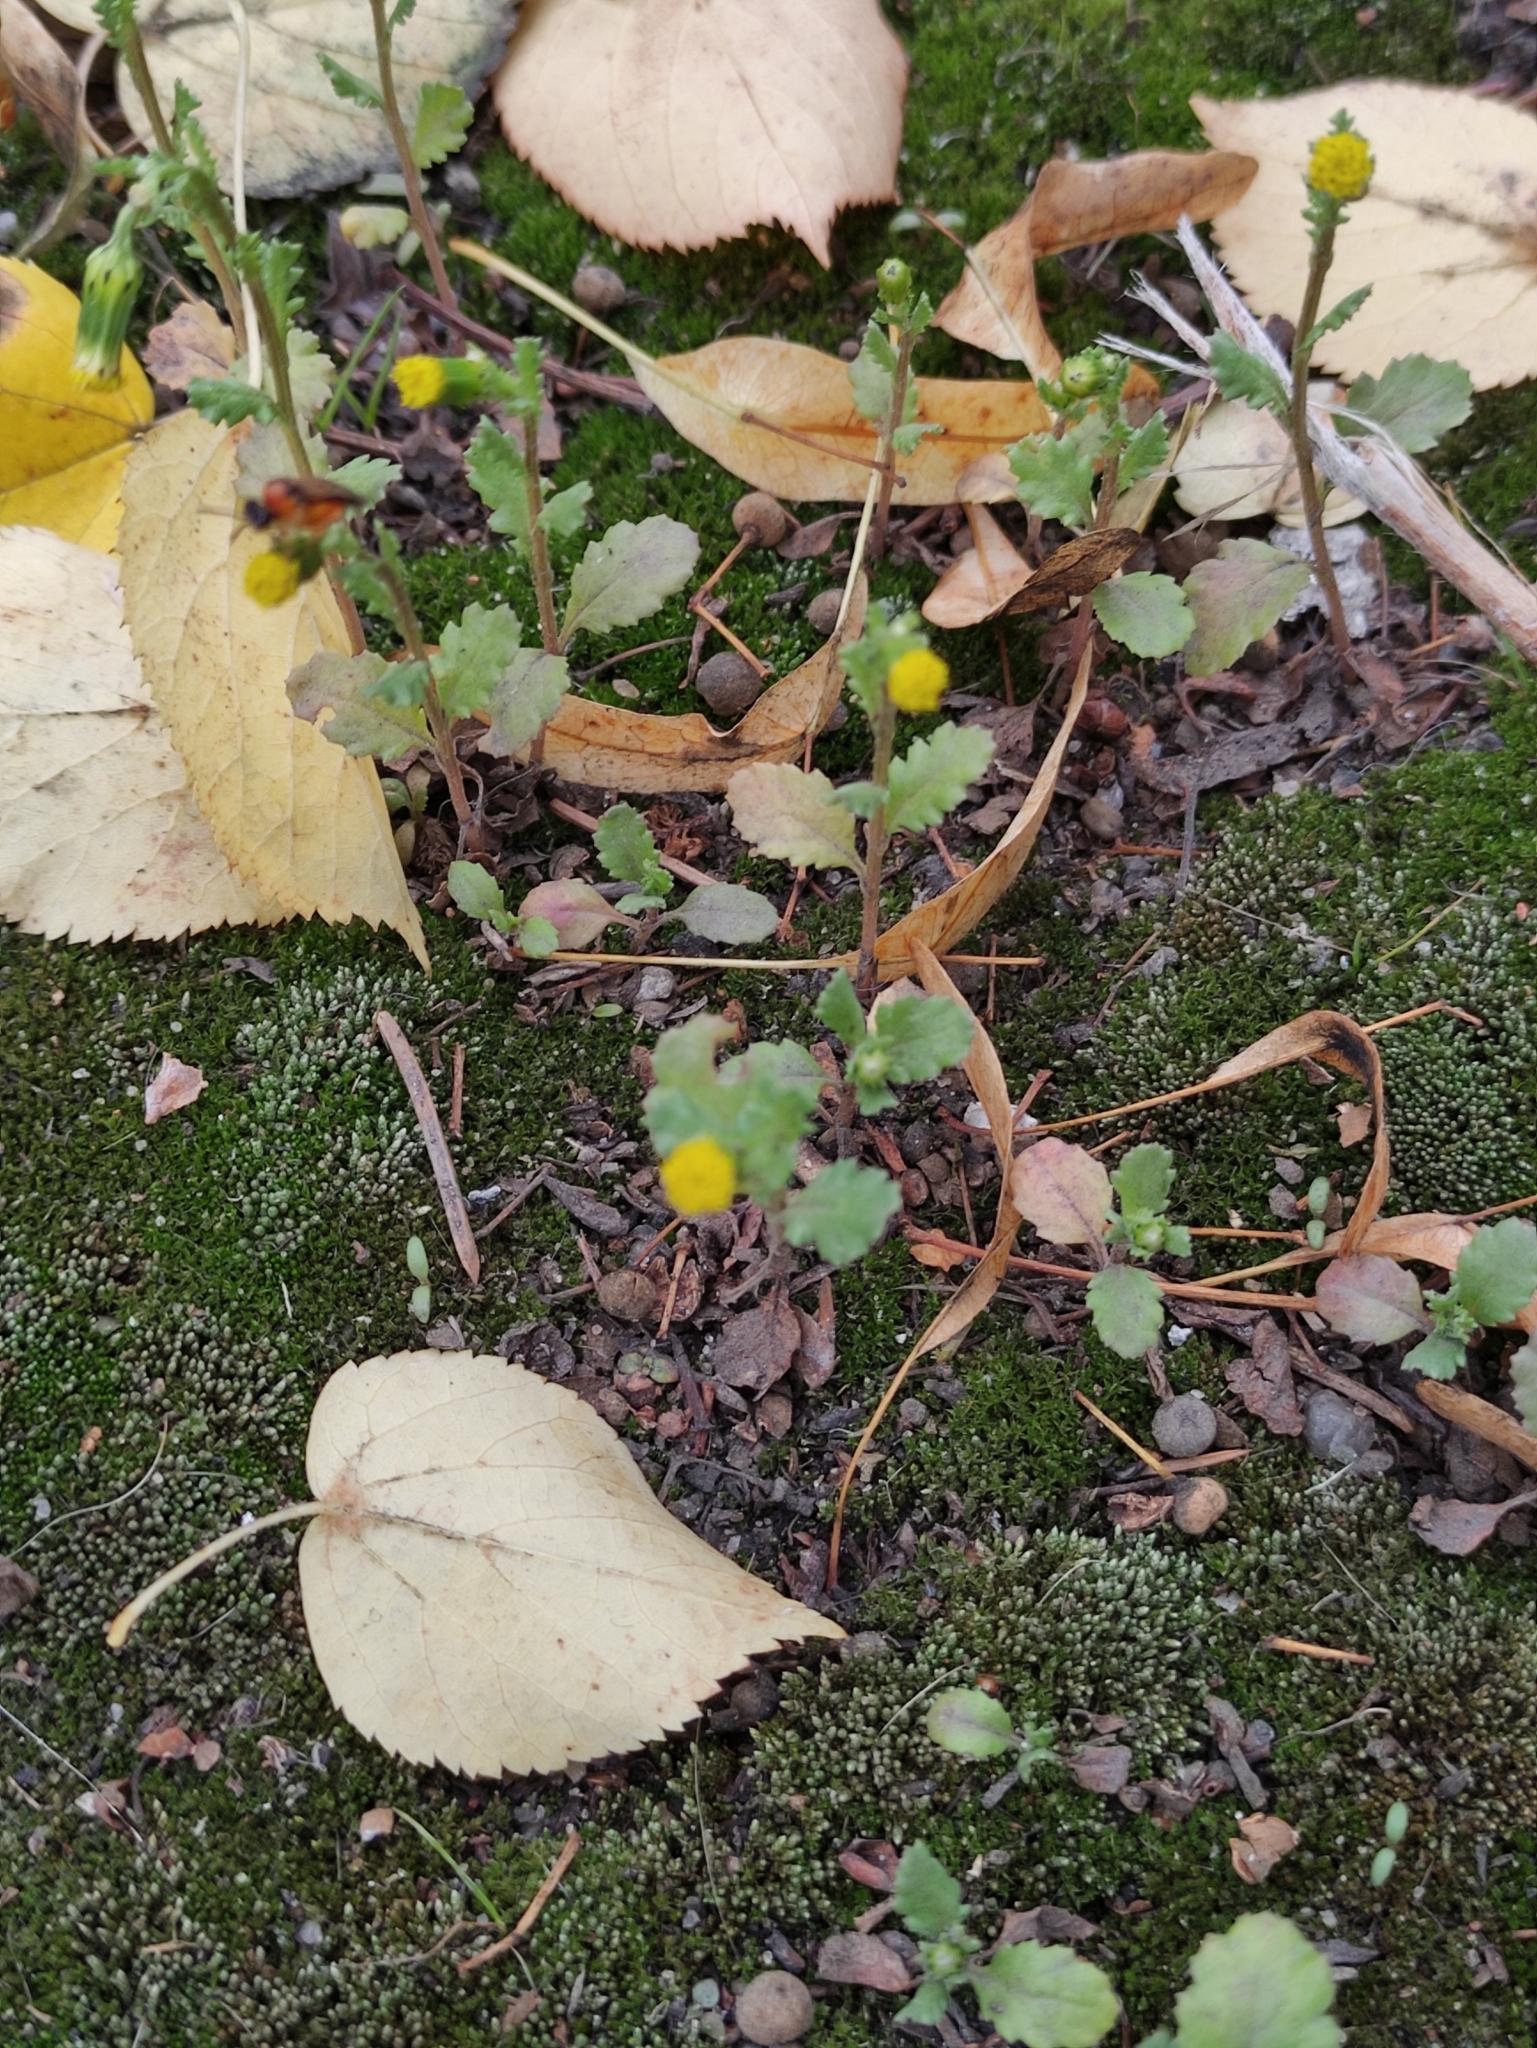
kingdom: Plantae
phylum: Tracheophyta
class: Magnoliopsida
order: Asterales
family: Asteraceae
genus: Senecio
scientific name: Senecio vulgaris
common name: Old-man-in-the-spring
